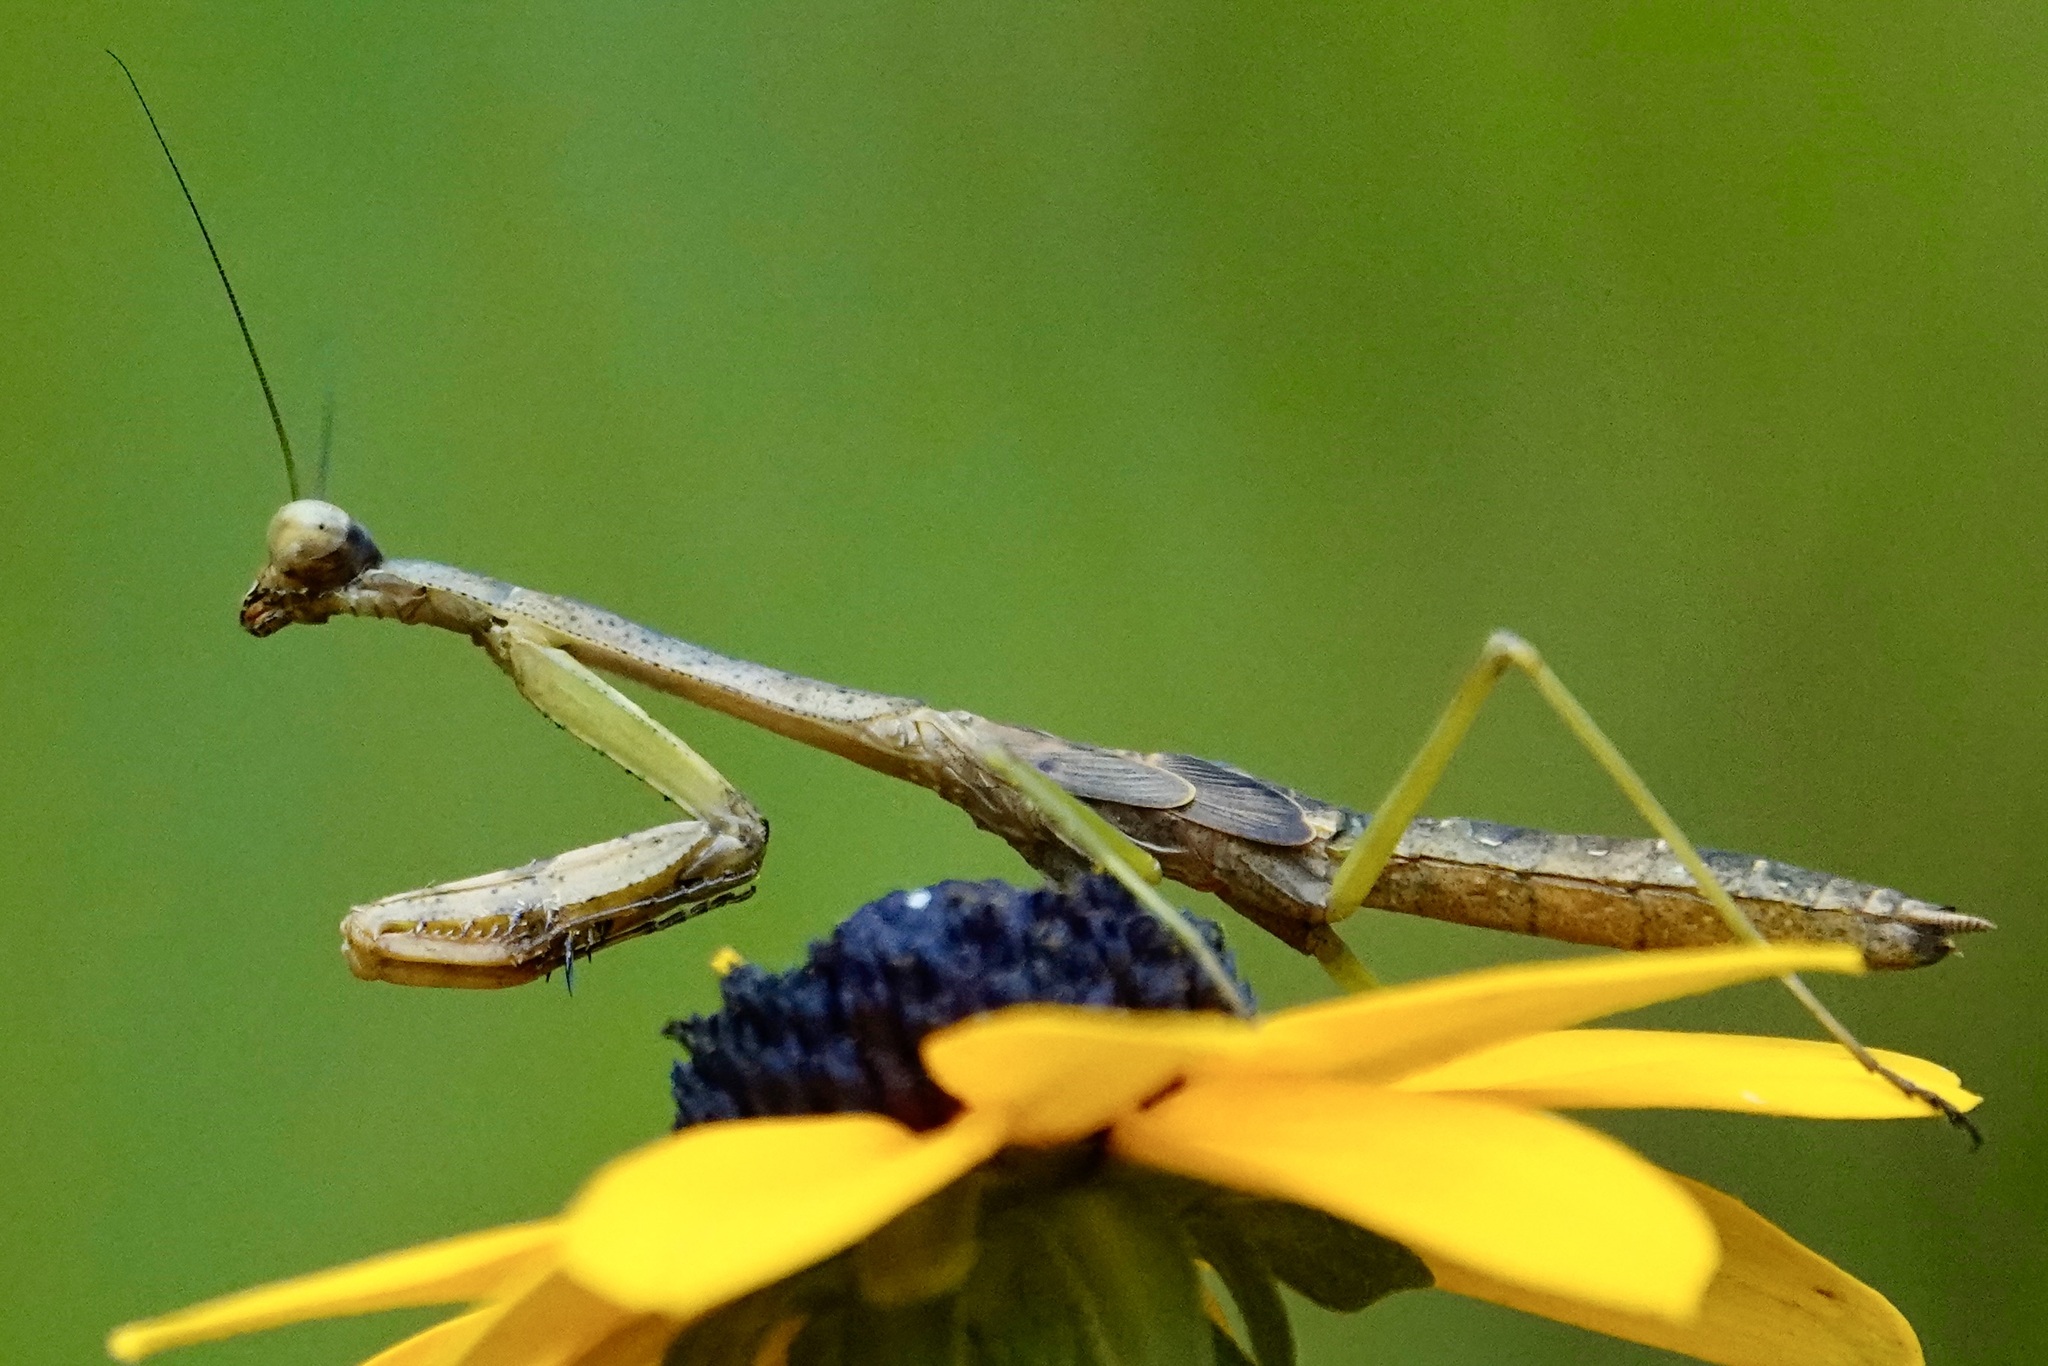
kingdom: Animalia
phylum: Arthropoda
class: Insecta
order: Mantodea
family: Mantidae
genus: Stagmomantis
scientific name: Stagmomantis carolina
